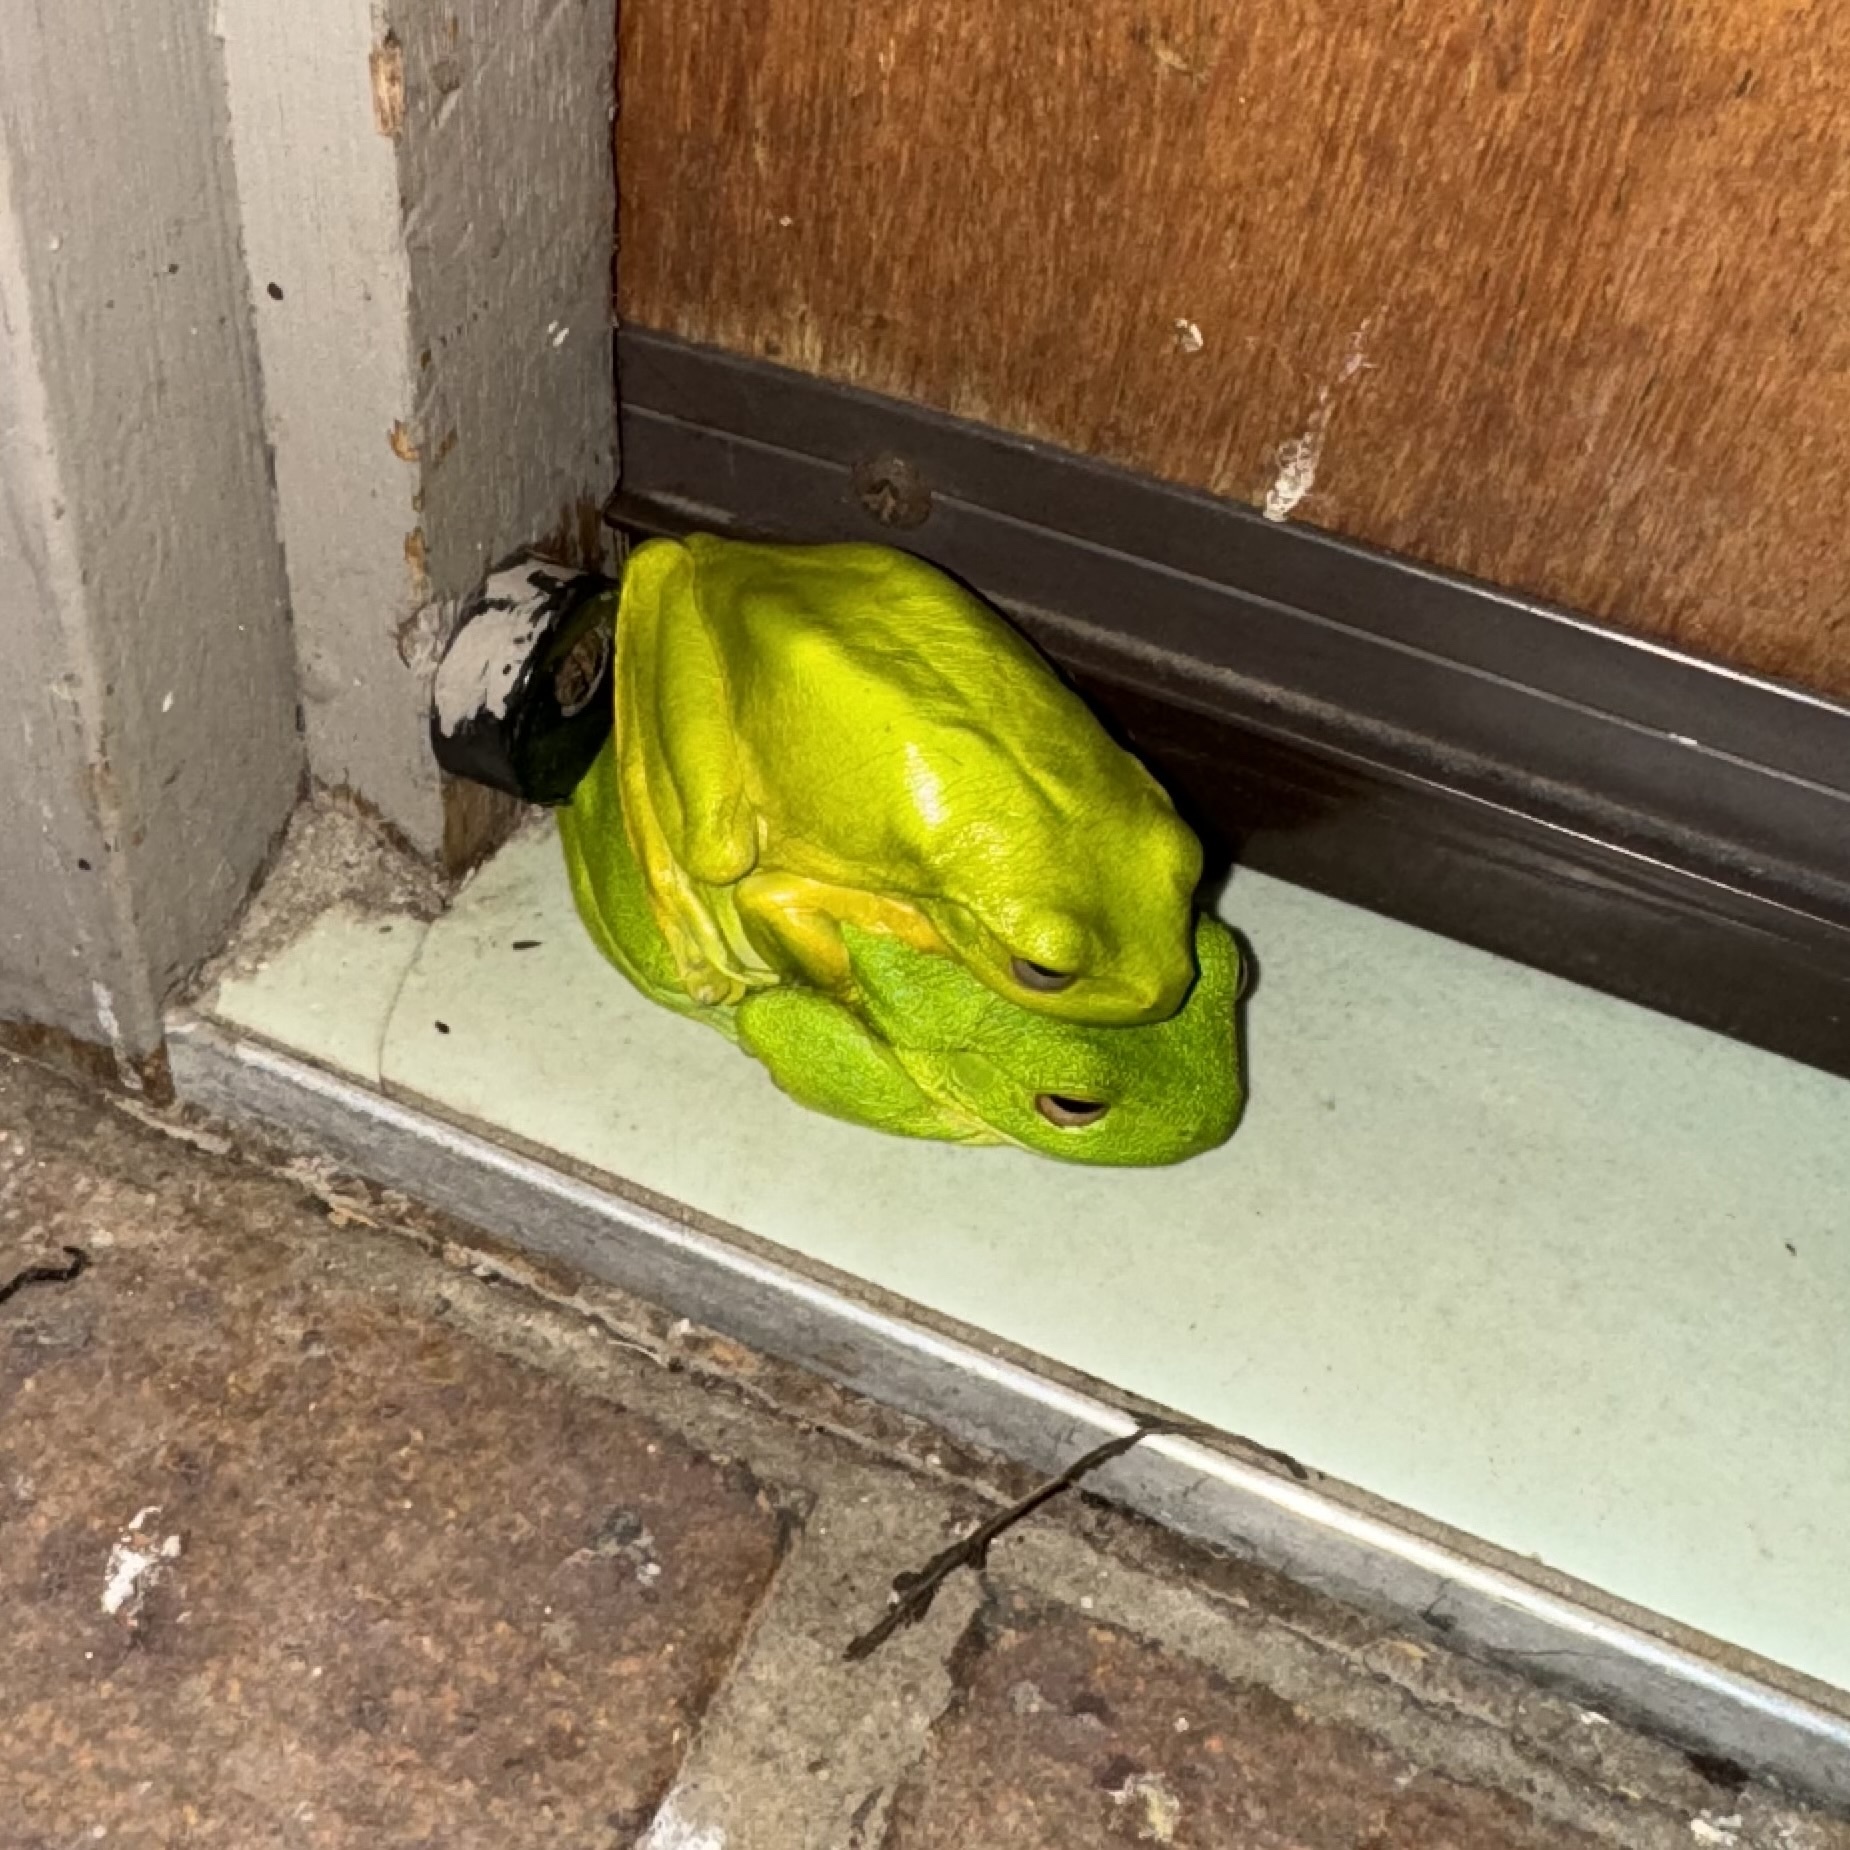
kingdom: Animalia
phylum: Chordata
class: Amphibia
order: Anura
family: Pelodryadidae
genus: Ranoidea
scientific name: Ranoidea chloris
